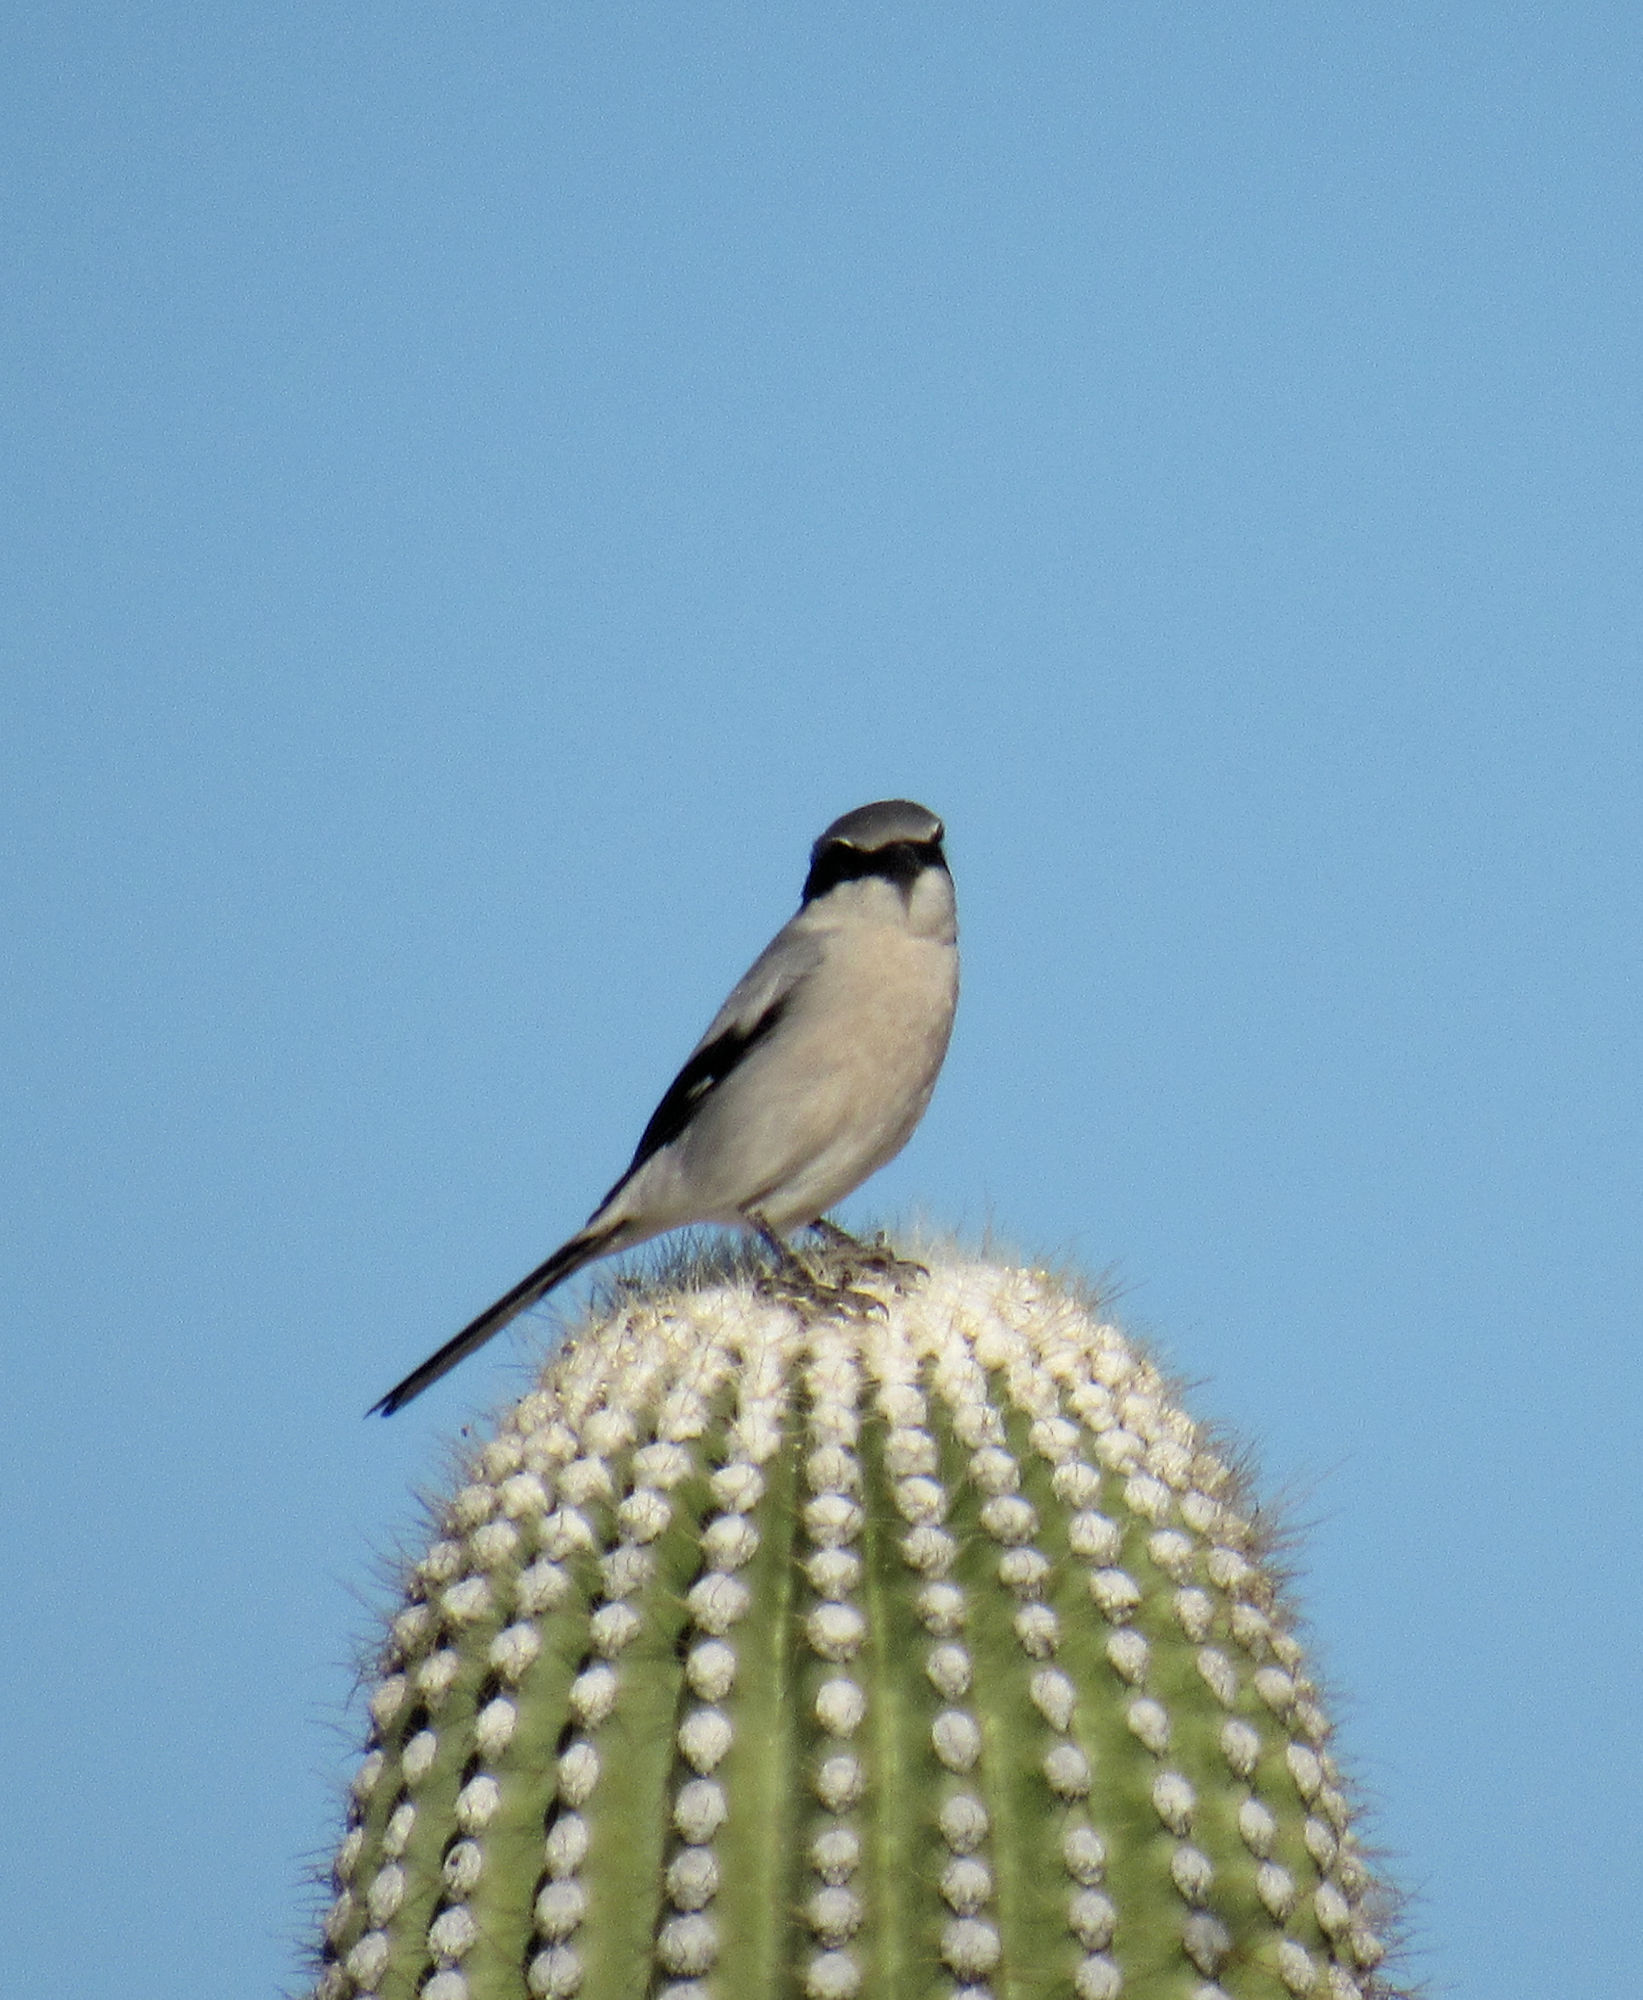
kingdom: Animalia
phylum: Chordata
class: Aves
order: Passeriformes
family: Laniidae
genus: Lanius
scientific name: Lanius ludovicianus
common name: Loggerhead shrike
